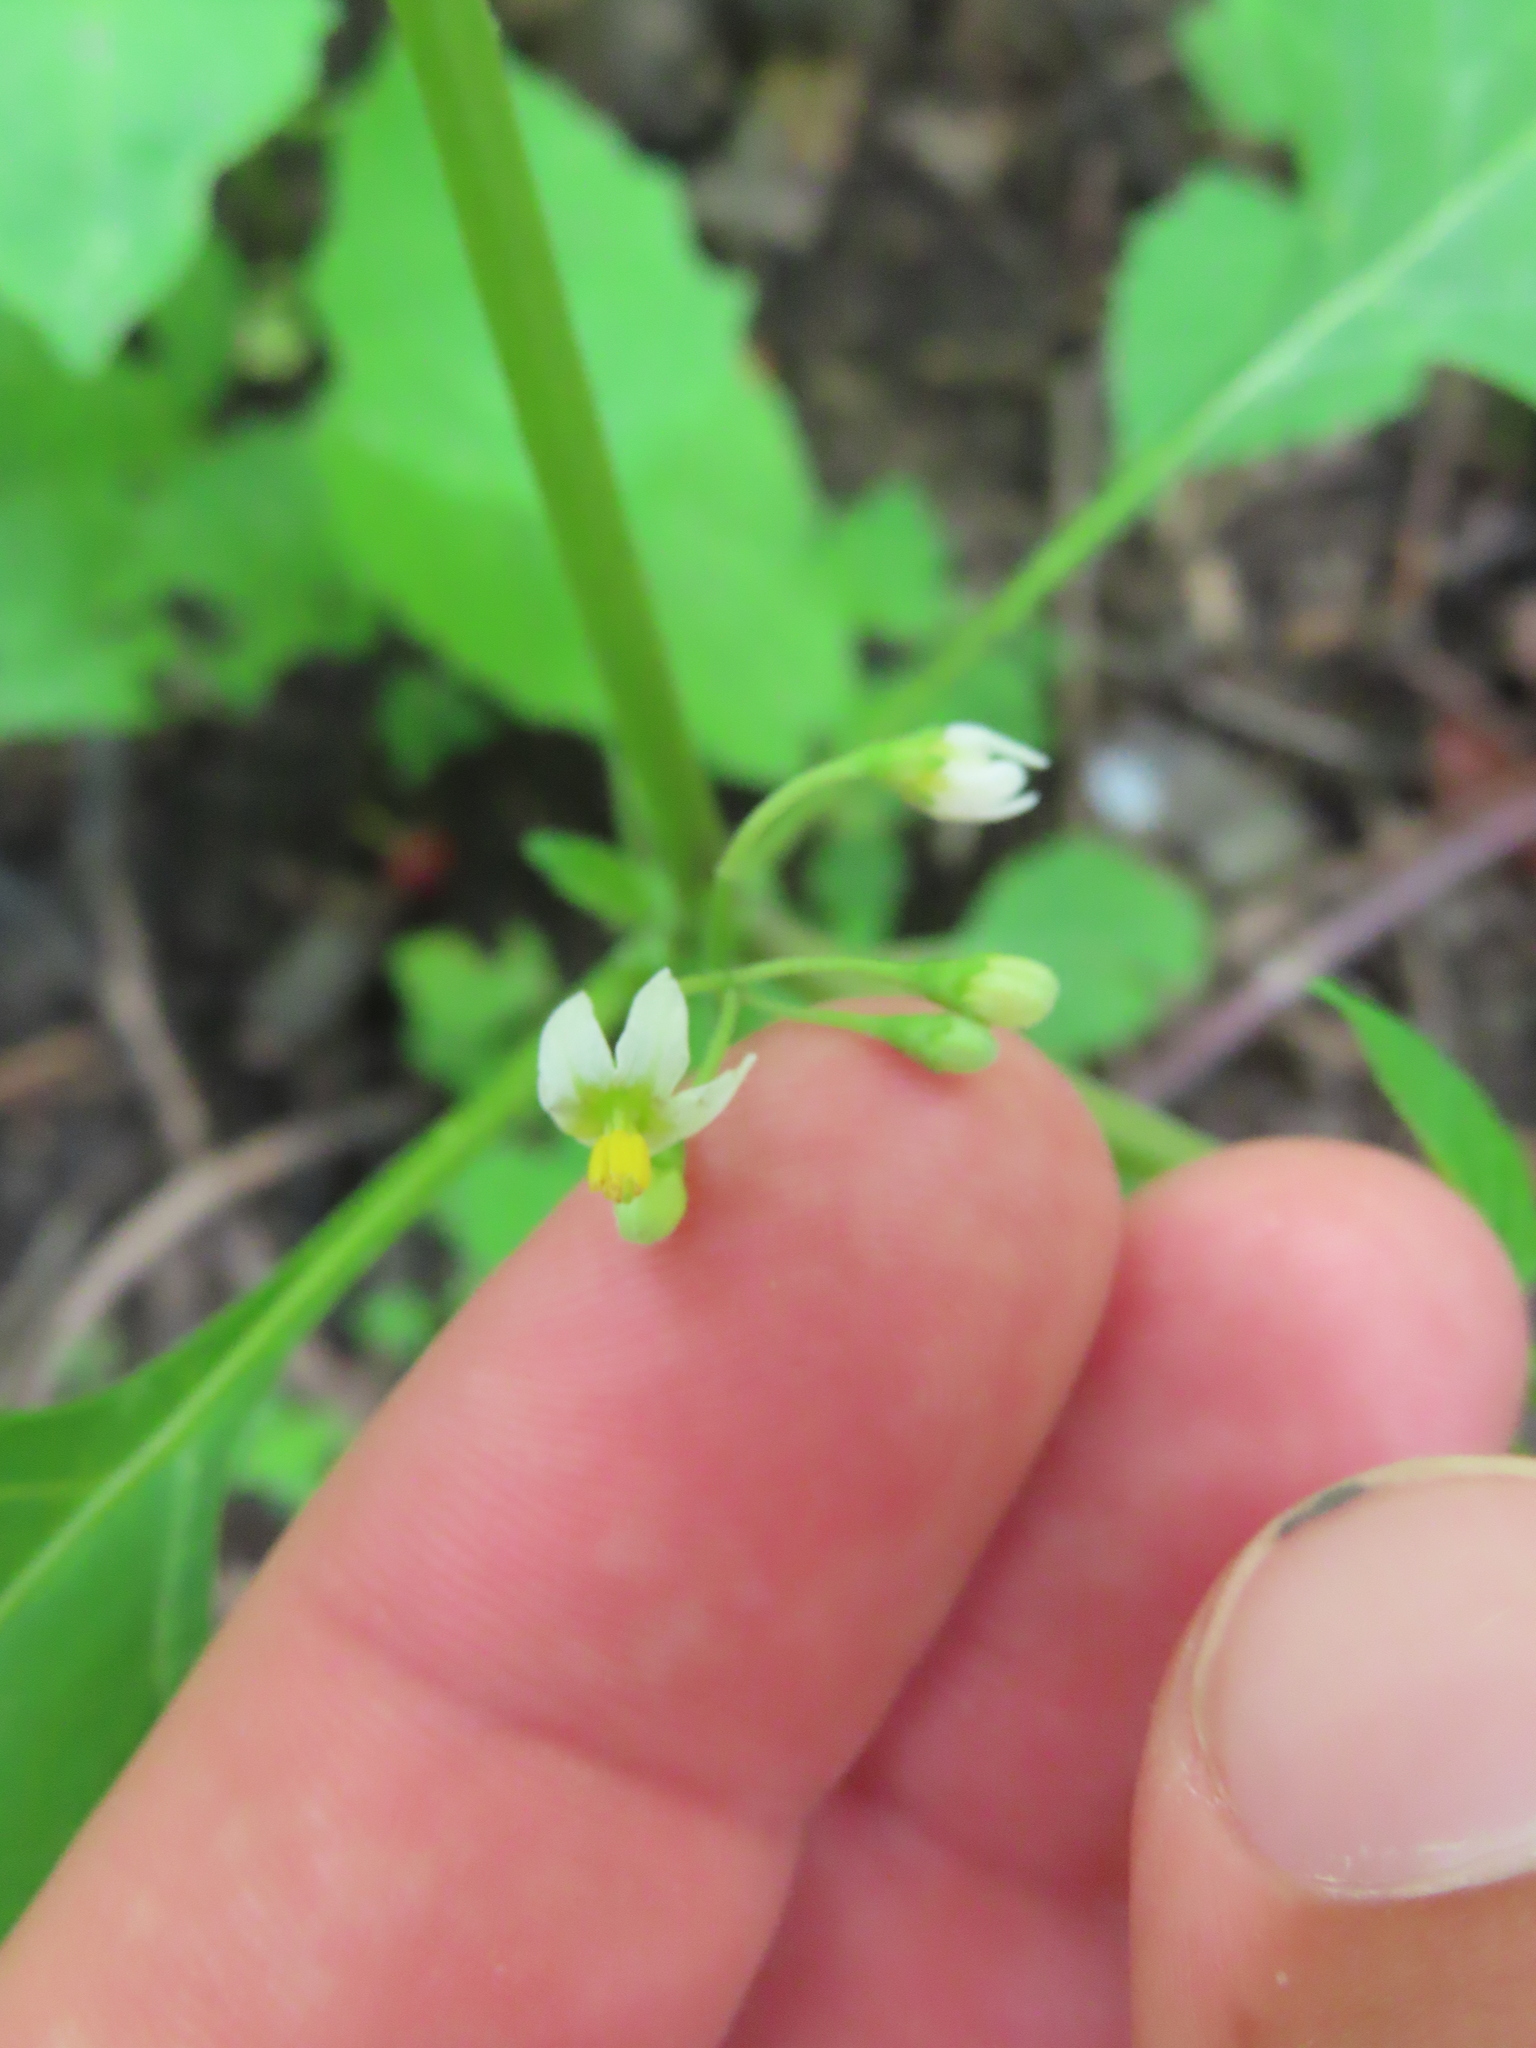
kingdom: Plantae
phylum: Tracheophyta
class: Magnoliopsida
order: Solanales
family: Solanaceae
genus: Solanum
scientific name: Solanum emulans
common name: Eastern black nightshade
